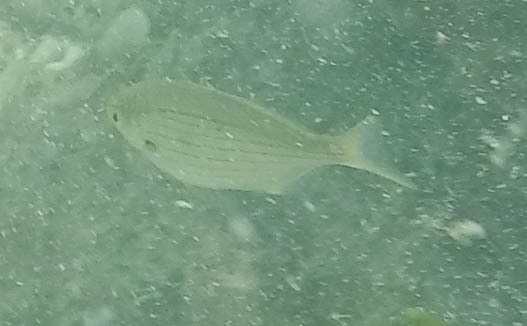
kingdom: Animalia
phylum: Chordata
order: Perciformes
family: Sparidae
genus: Sarpa
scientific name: Sarpa salpa
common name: Salema
